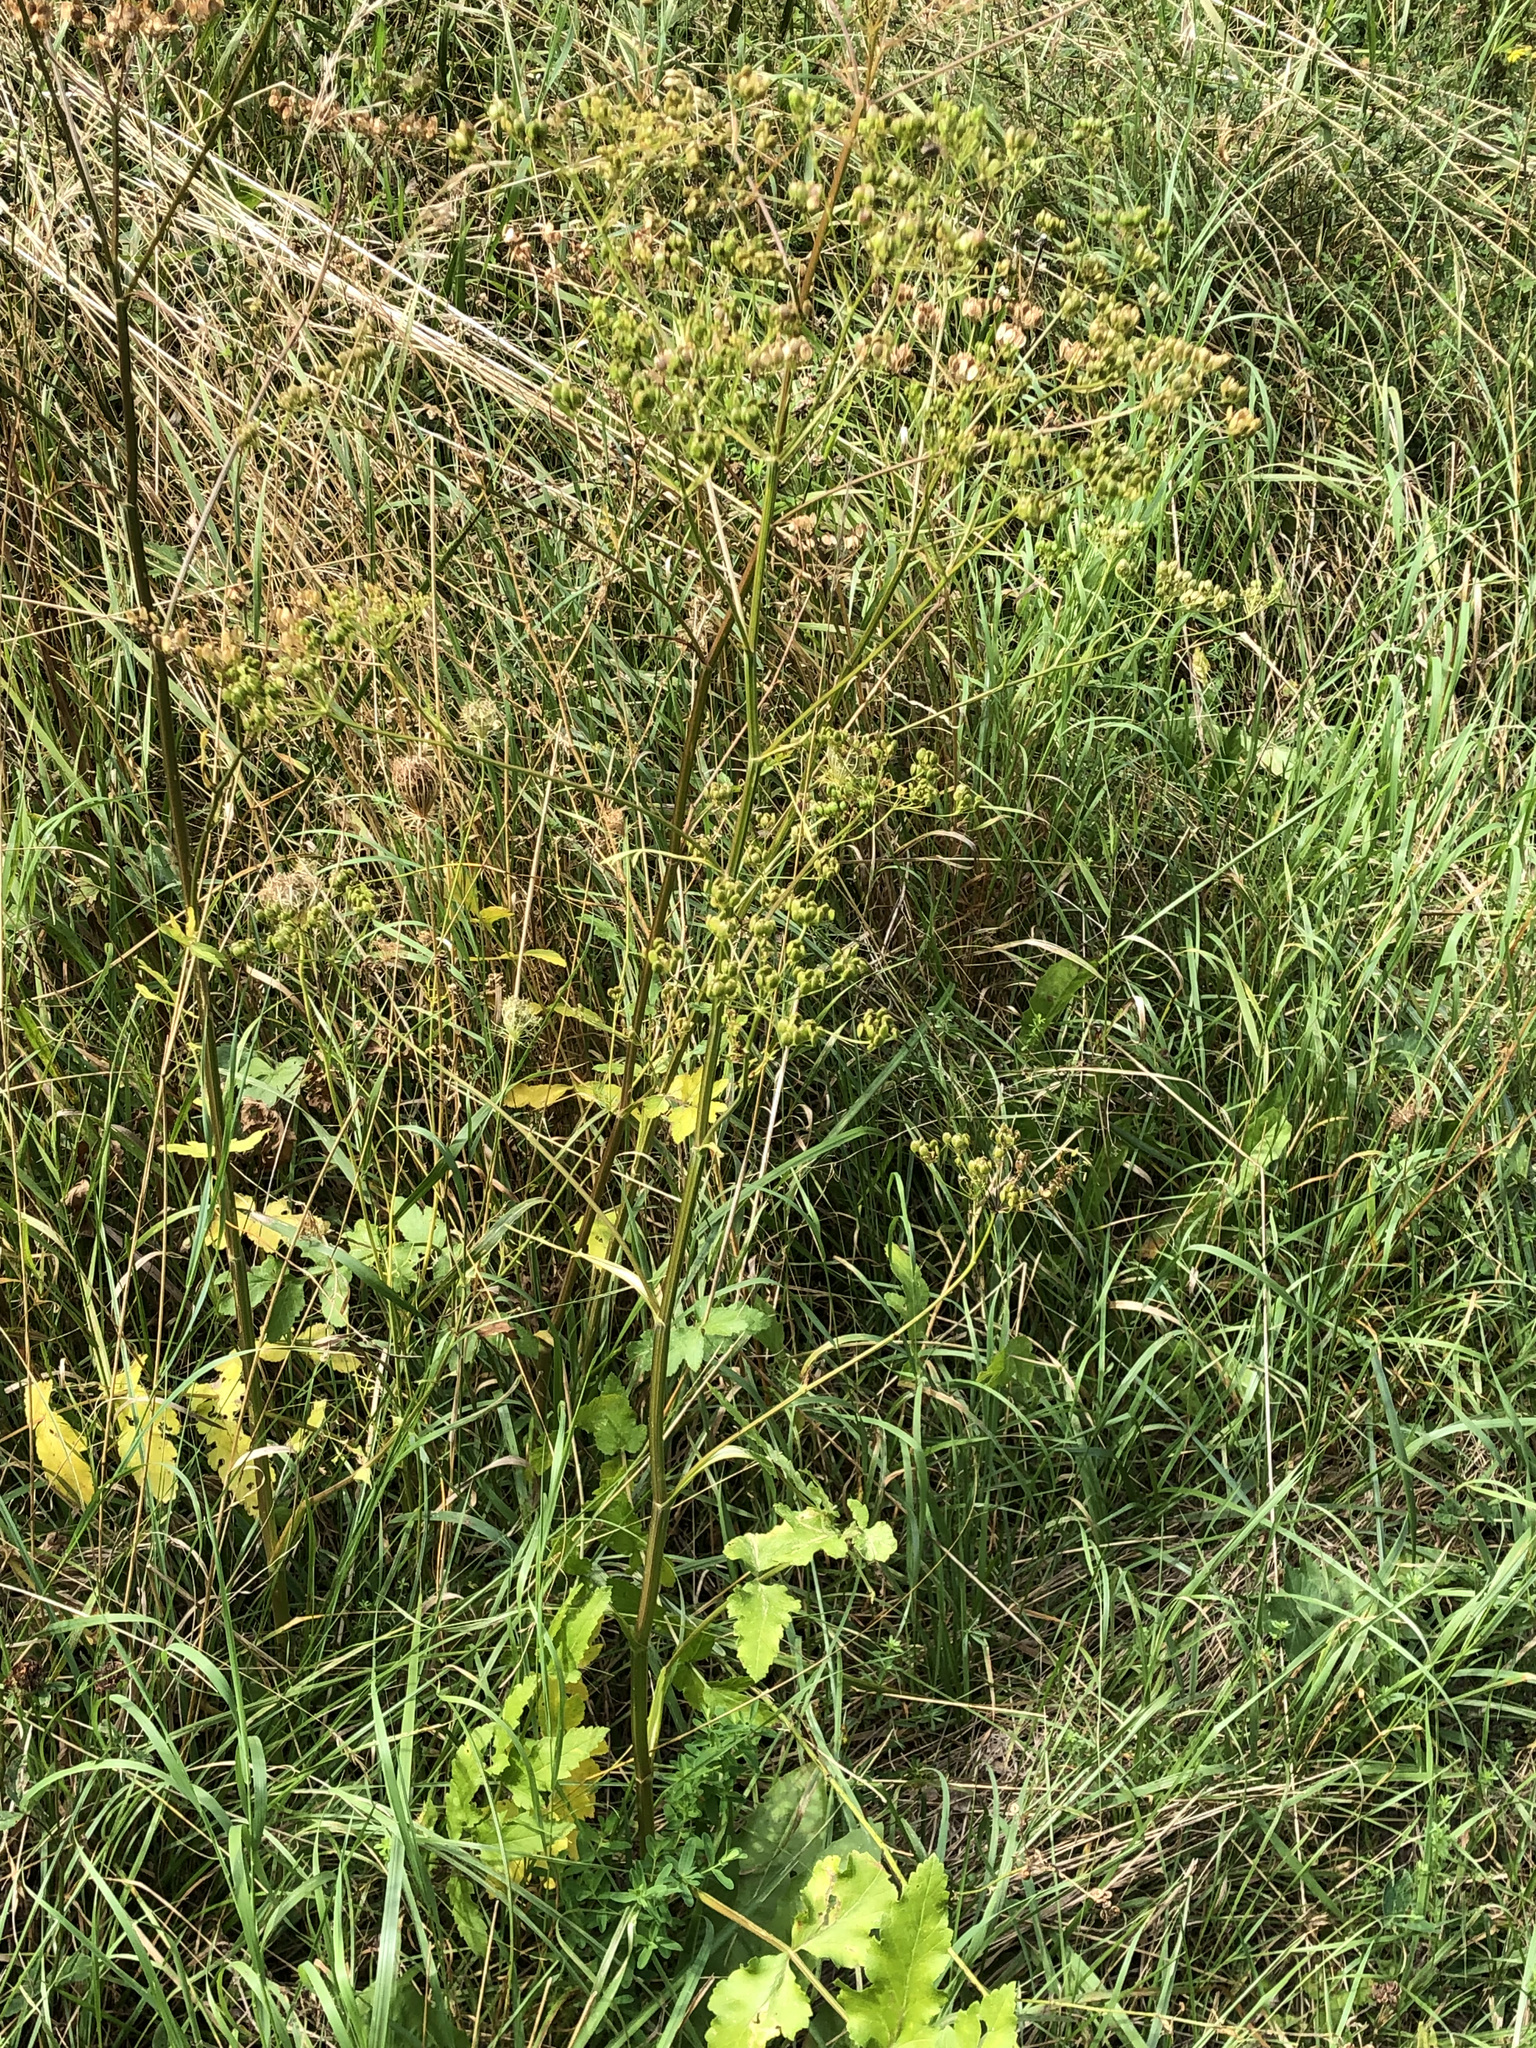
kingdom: Plantae
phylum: Tracheophyta
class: Magnoliopsida
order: Apiales
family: Apiaceae
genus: Pastinaca
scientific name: Pastinaca sativa
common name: Wild parsnip
